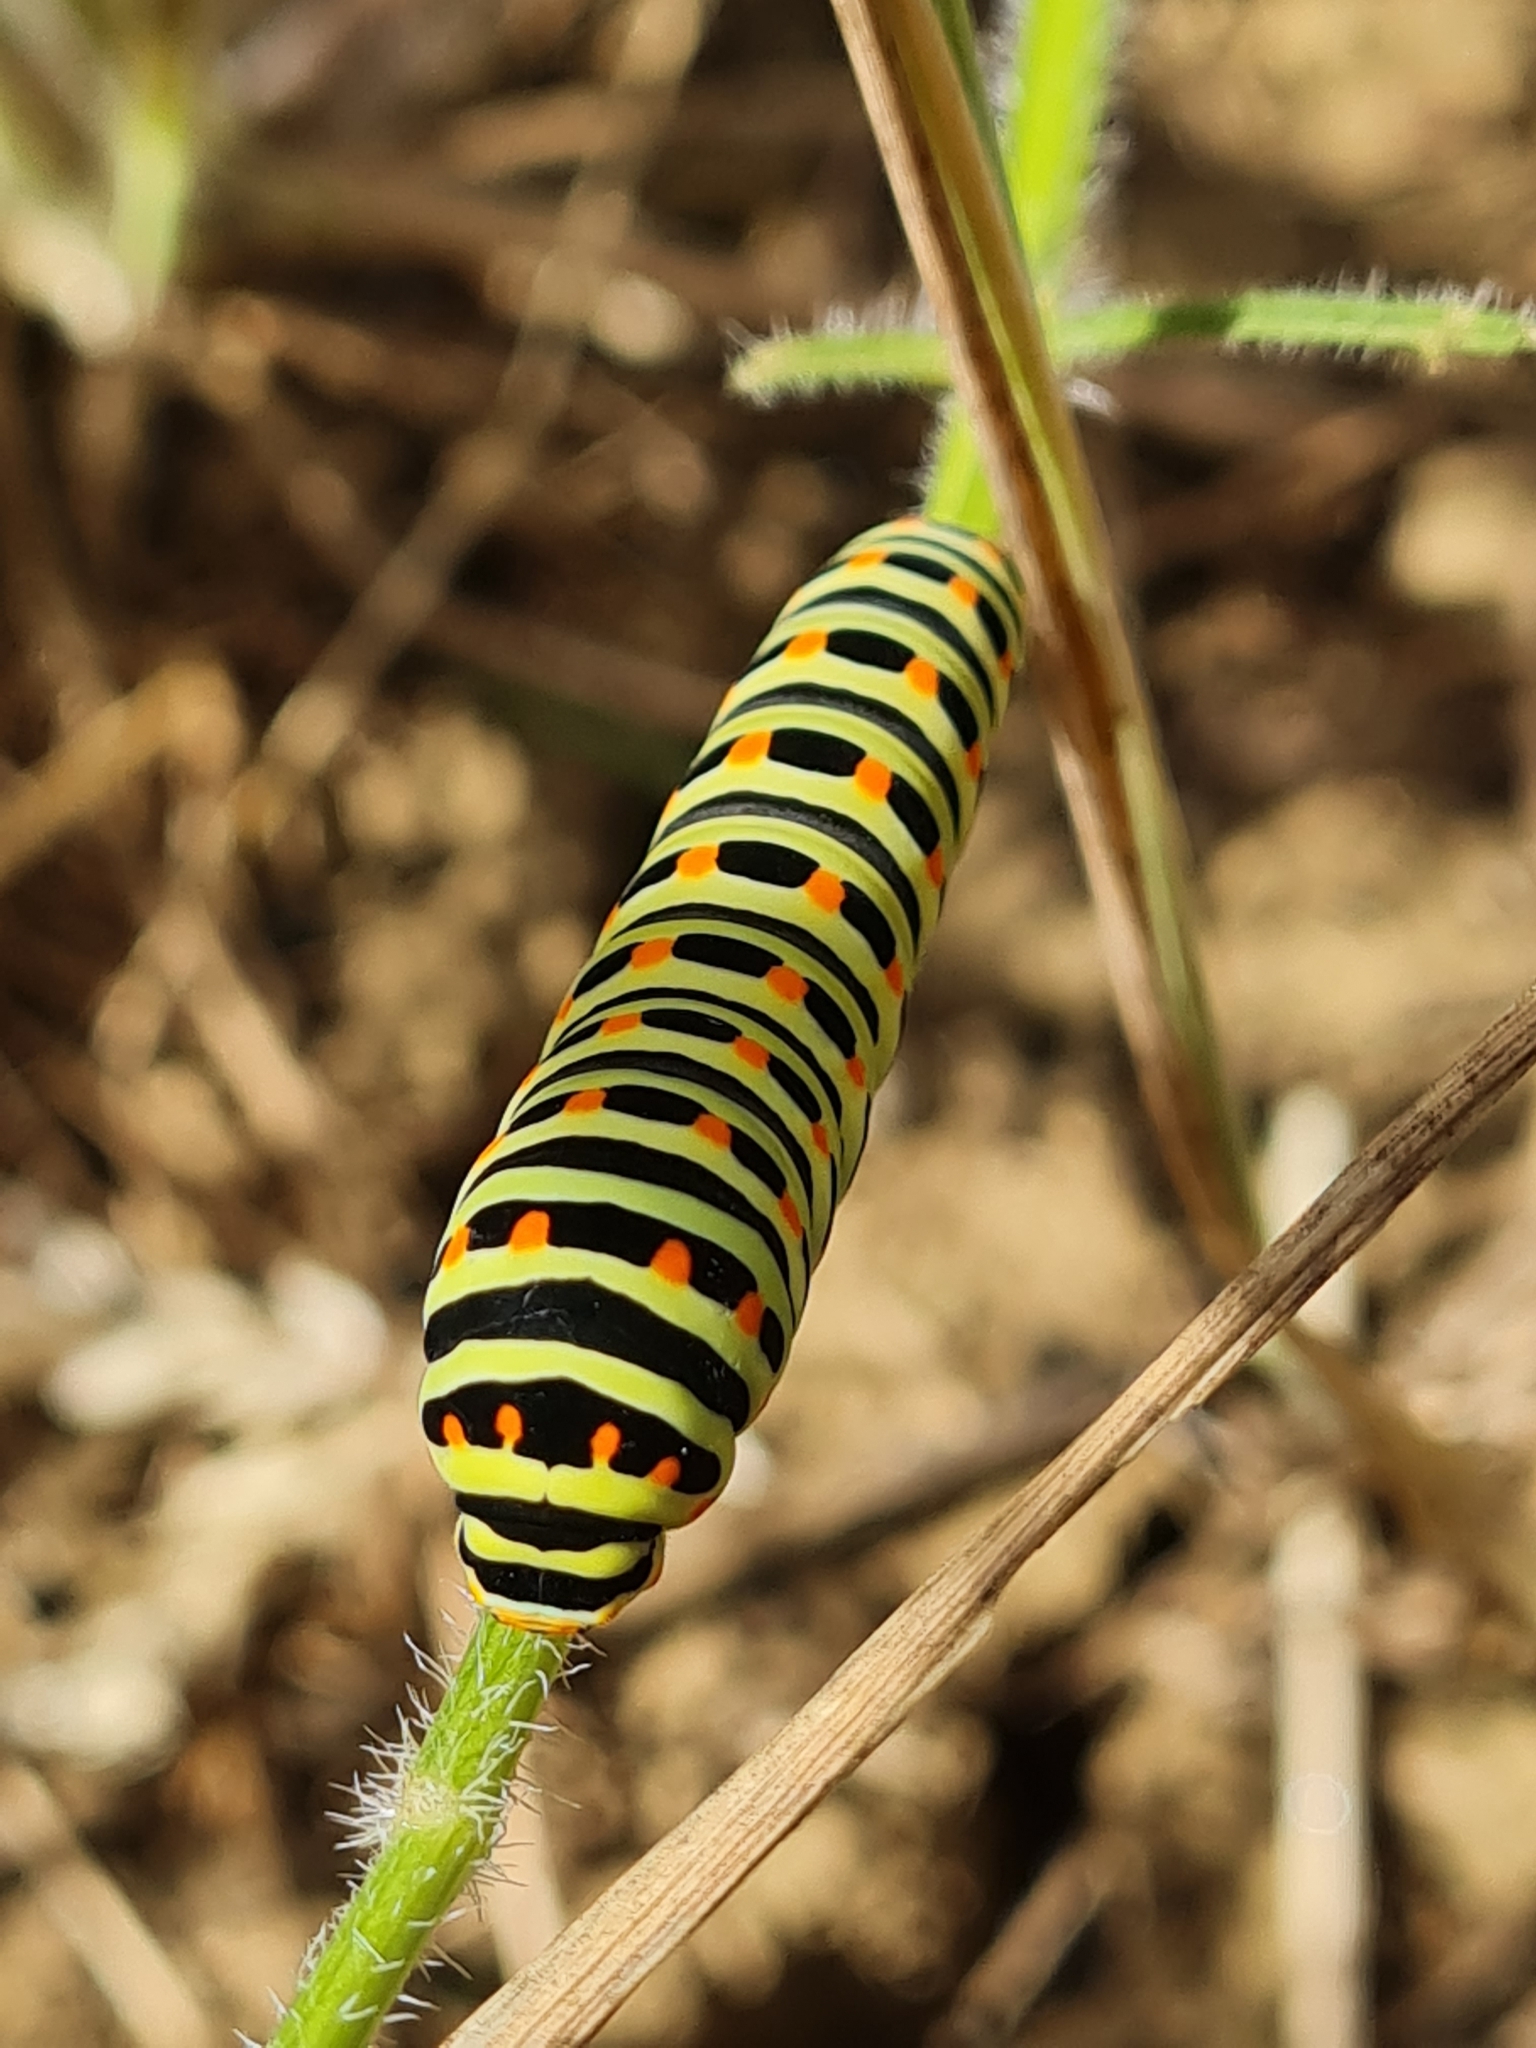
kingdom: Animalia
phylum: Arthropoda
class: Insecta
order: Lepidoptera
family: Papilionidae
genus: Papilio
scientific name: Papilio machaon
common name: Swallowtail
